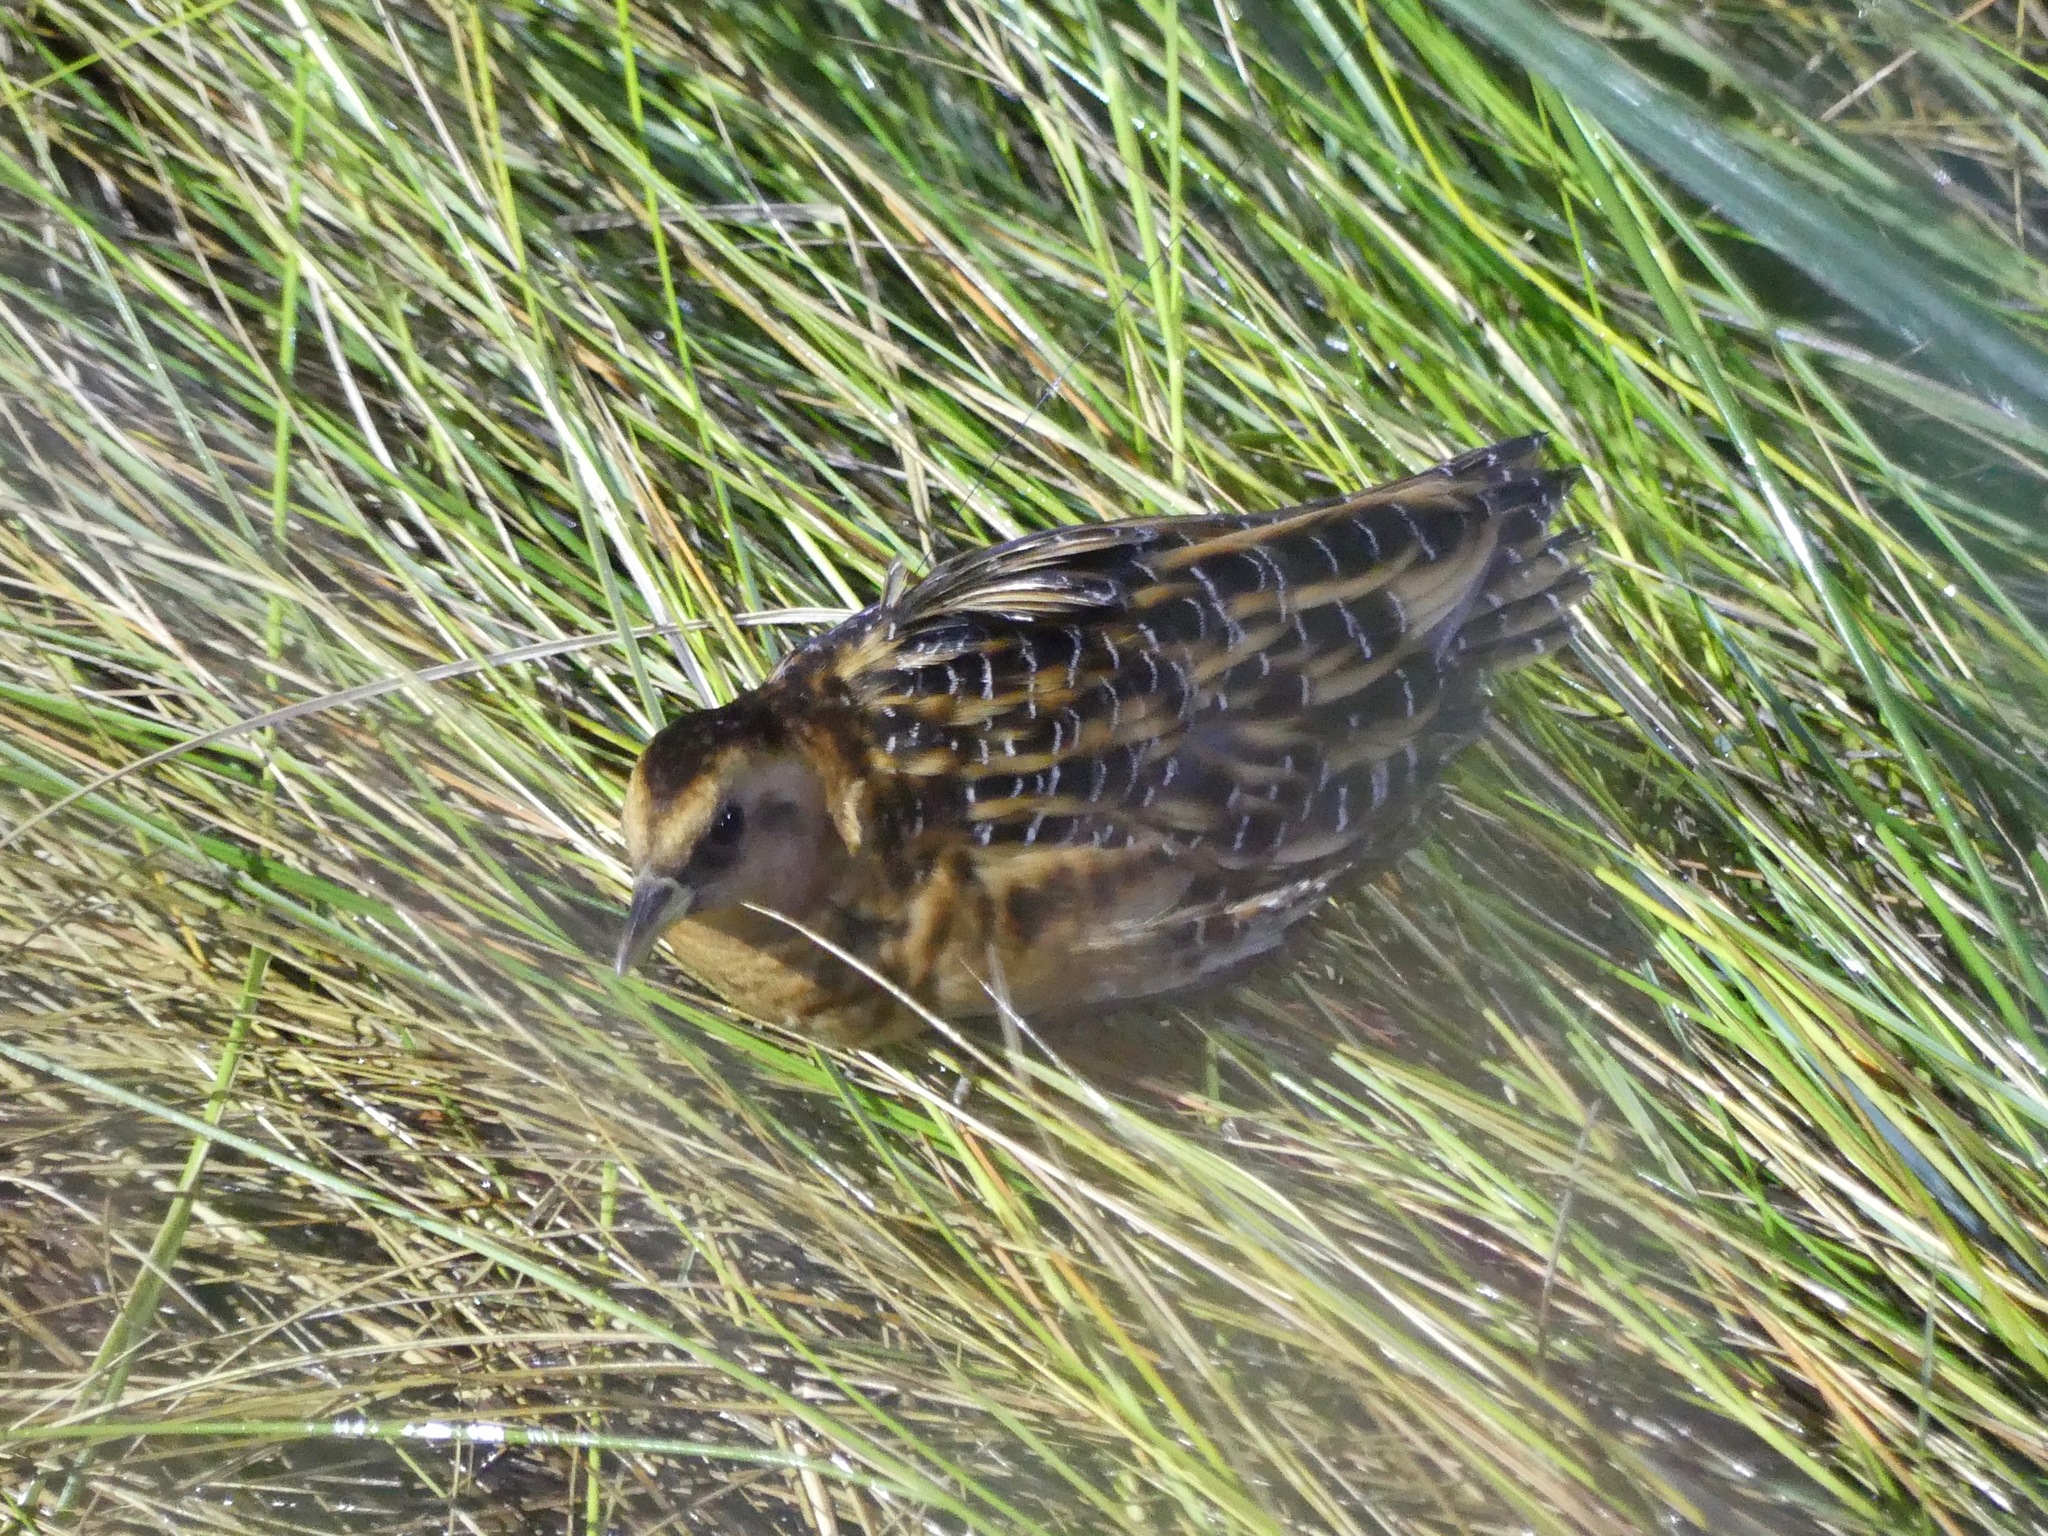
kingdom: Animalia
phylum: Chordata
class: Aves
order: Gruiformes
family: Rallidae
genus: Coturnicops
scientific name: Coturnicops noveboracensis
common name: Yellow rail
